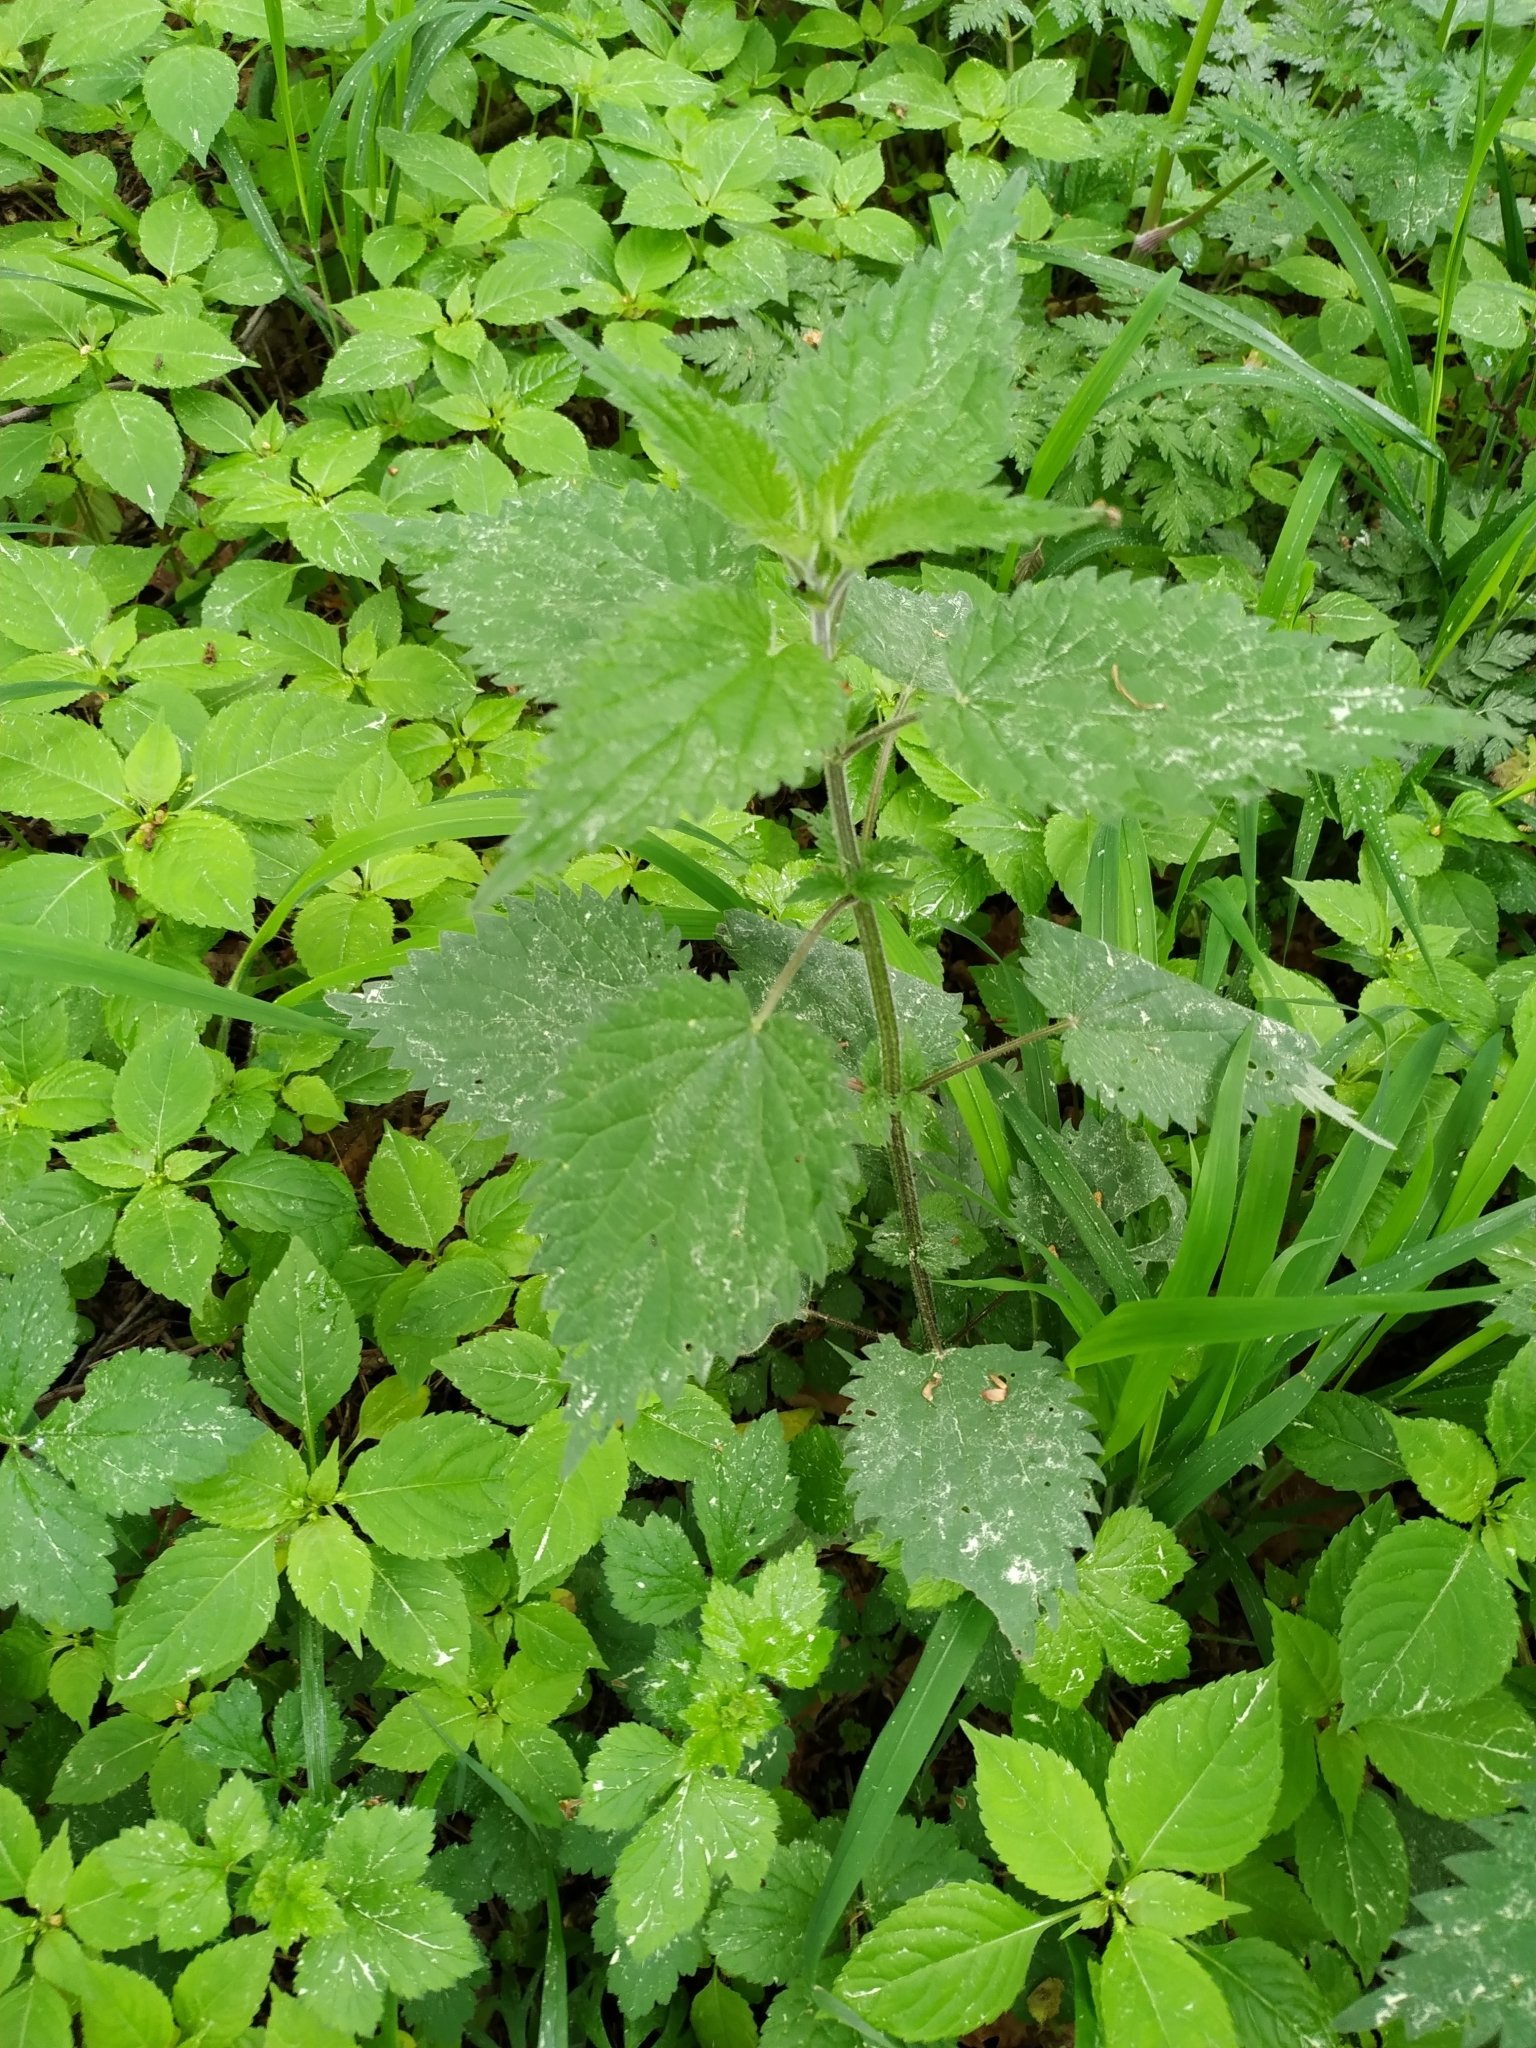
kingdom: Plantae
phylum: Tracheophyta
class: Magnoliopsida
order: Rosales
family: Urticaceae
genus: Urtica
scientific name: Urtica dioica
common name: Common nettle
